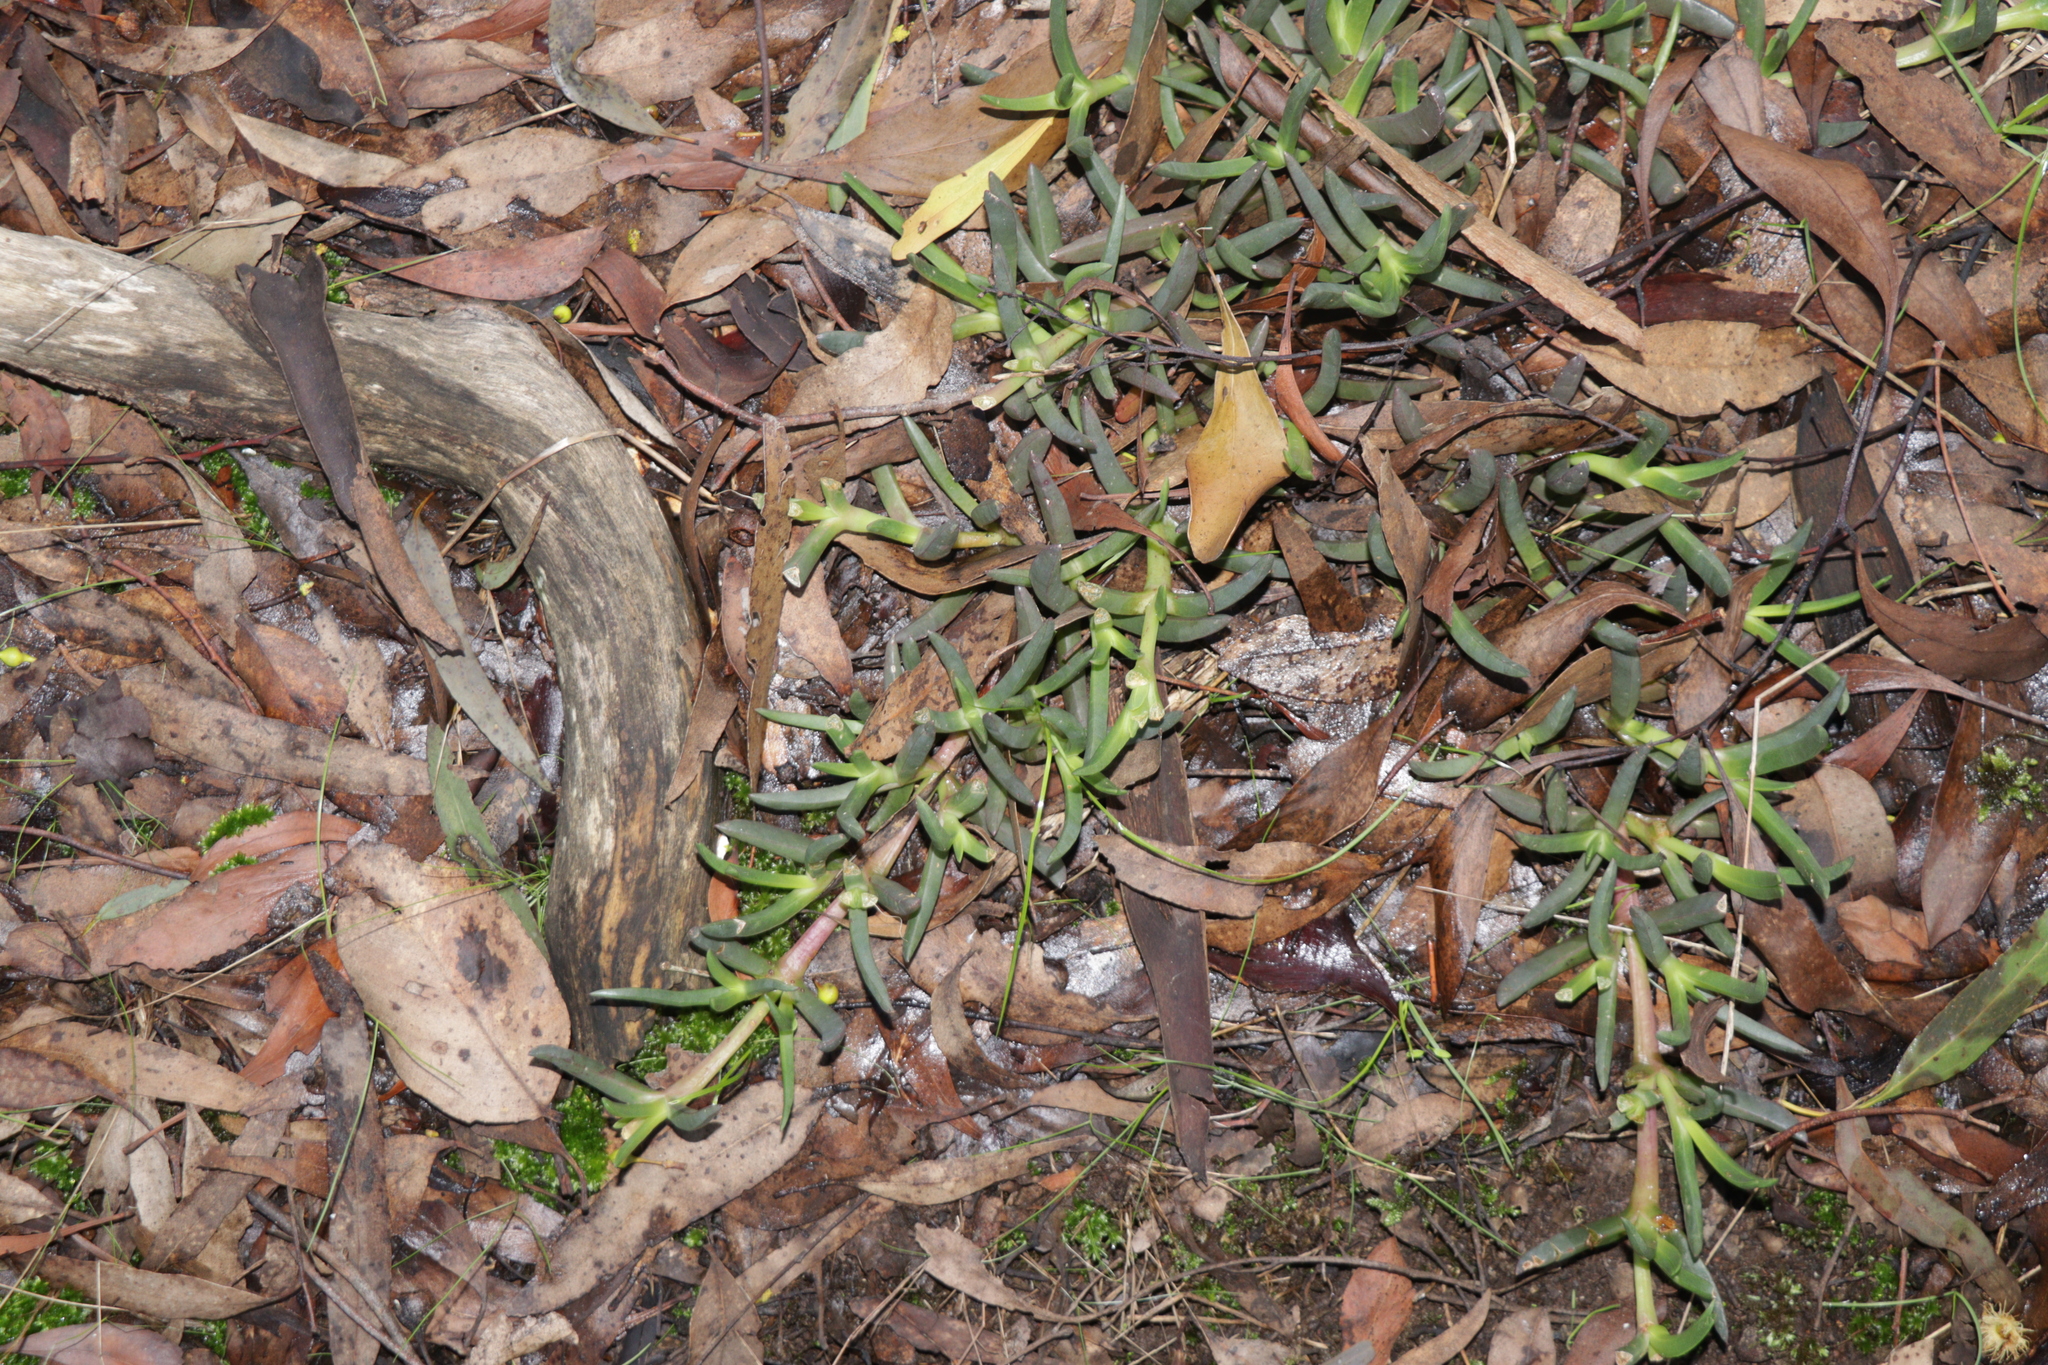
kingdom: Plantae
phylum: Tracheophyta
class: Magnoliopsida
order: Caryophyllales
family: Aizoaceae
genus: Carpobrotus
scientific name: Carpobrotus modestus
